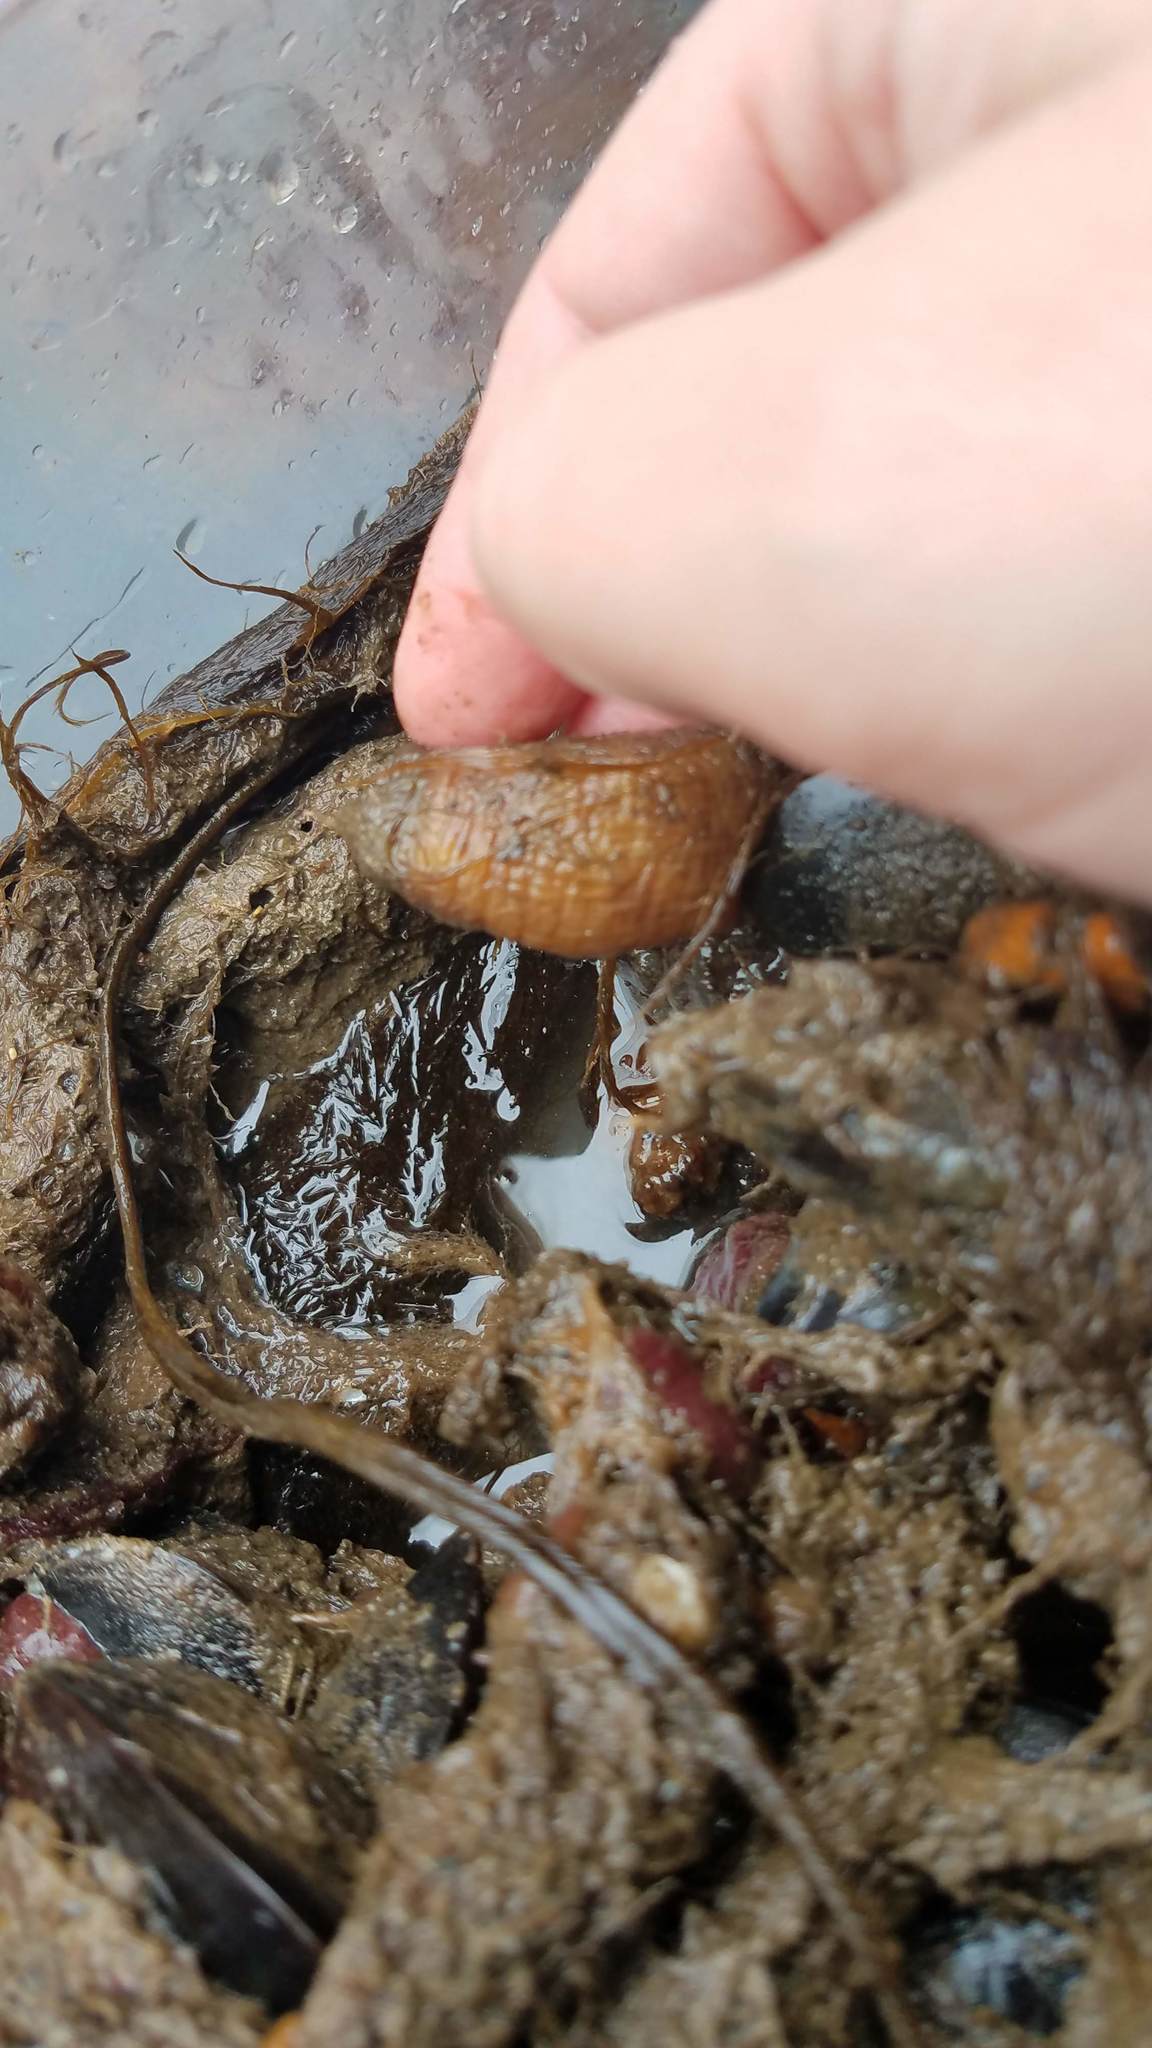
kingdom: Animalia
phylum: Chordata
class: Ascidiacea
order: Stolidobranchia
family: Styelidae
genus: Styela
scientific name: Styela clava
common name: Leathery sea squirt
